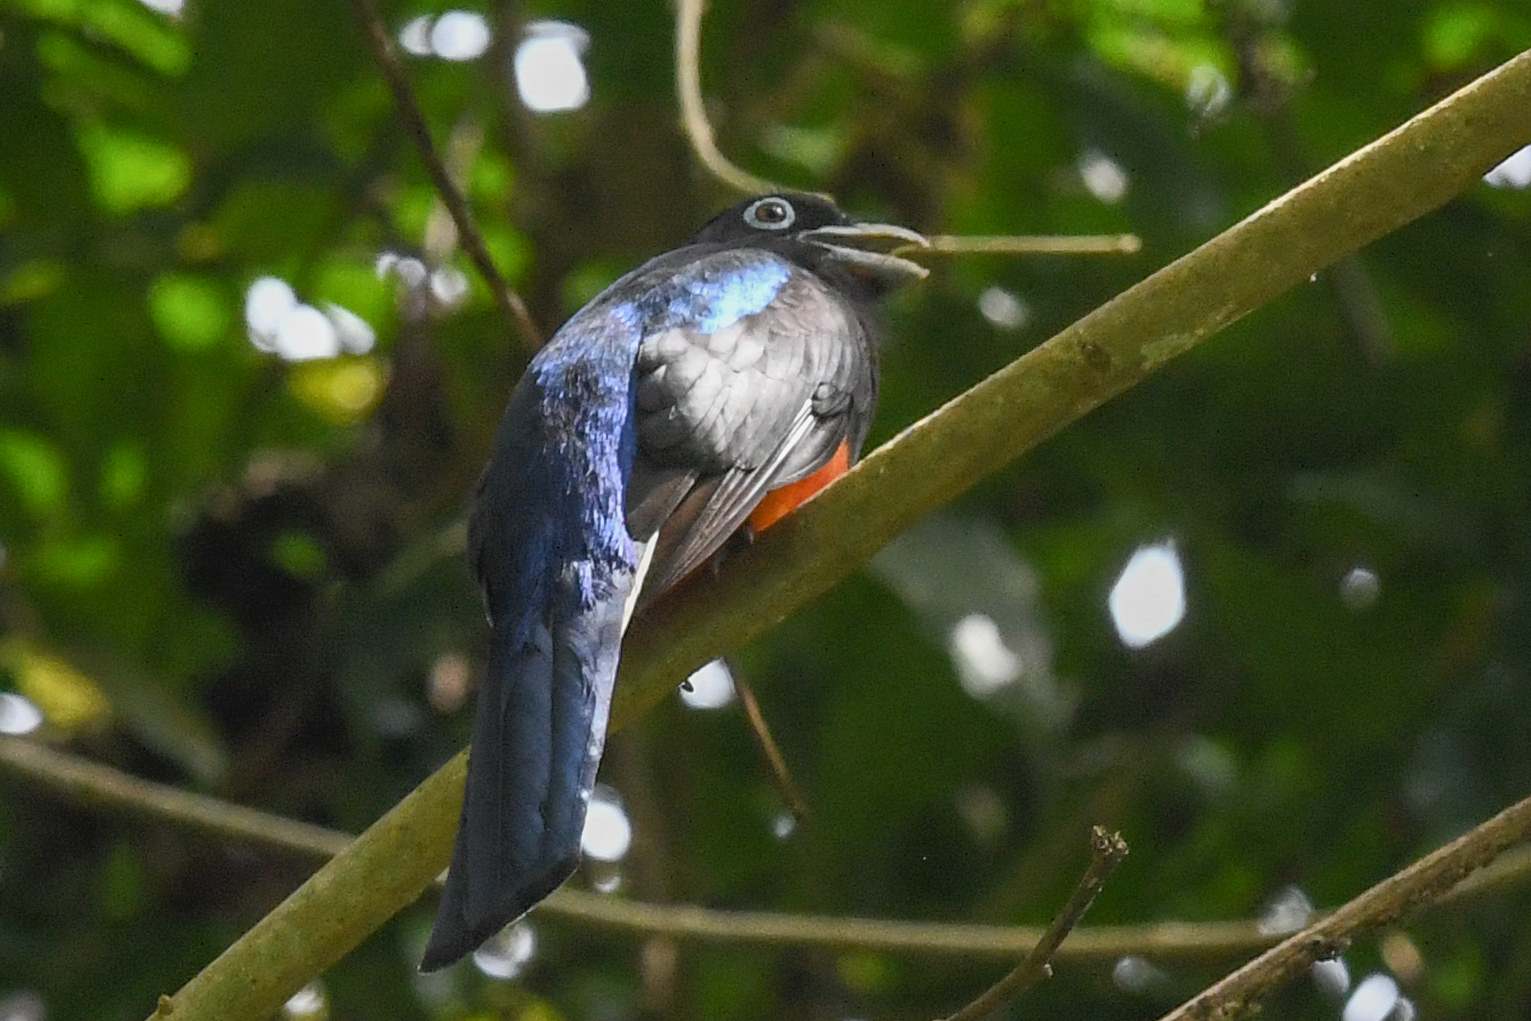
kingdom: Animalia
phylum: Chordata
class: Aves
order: Trogoniformes
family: Trogonidae
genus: Trogon
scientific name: Trogon bairdii
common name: Baird's trogon
